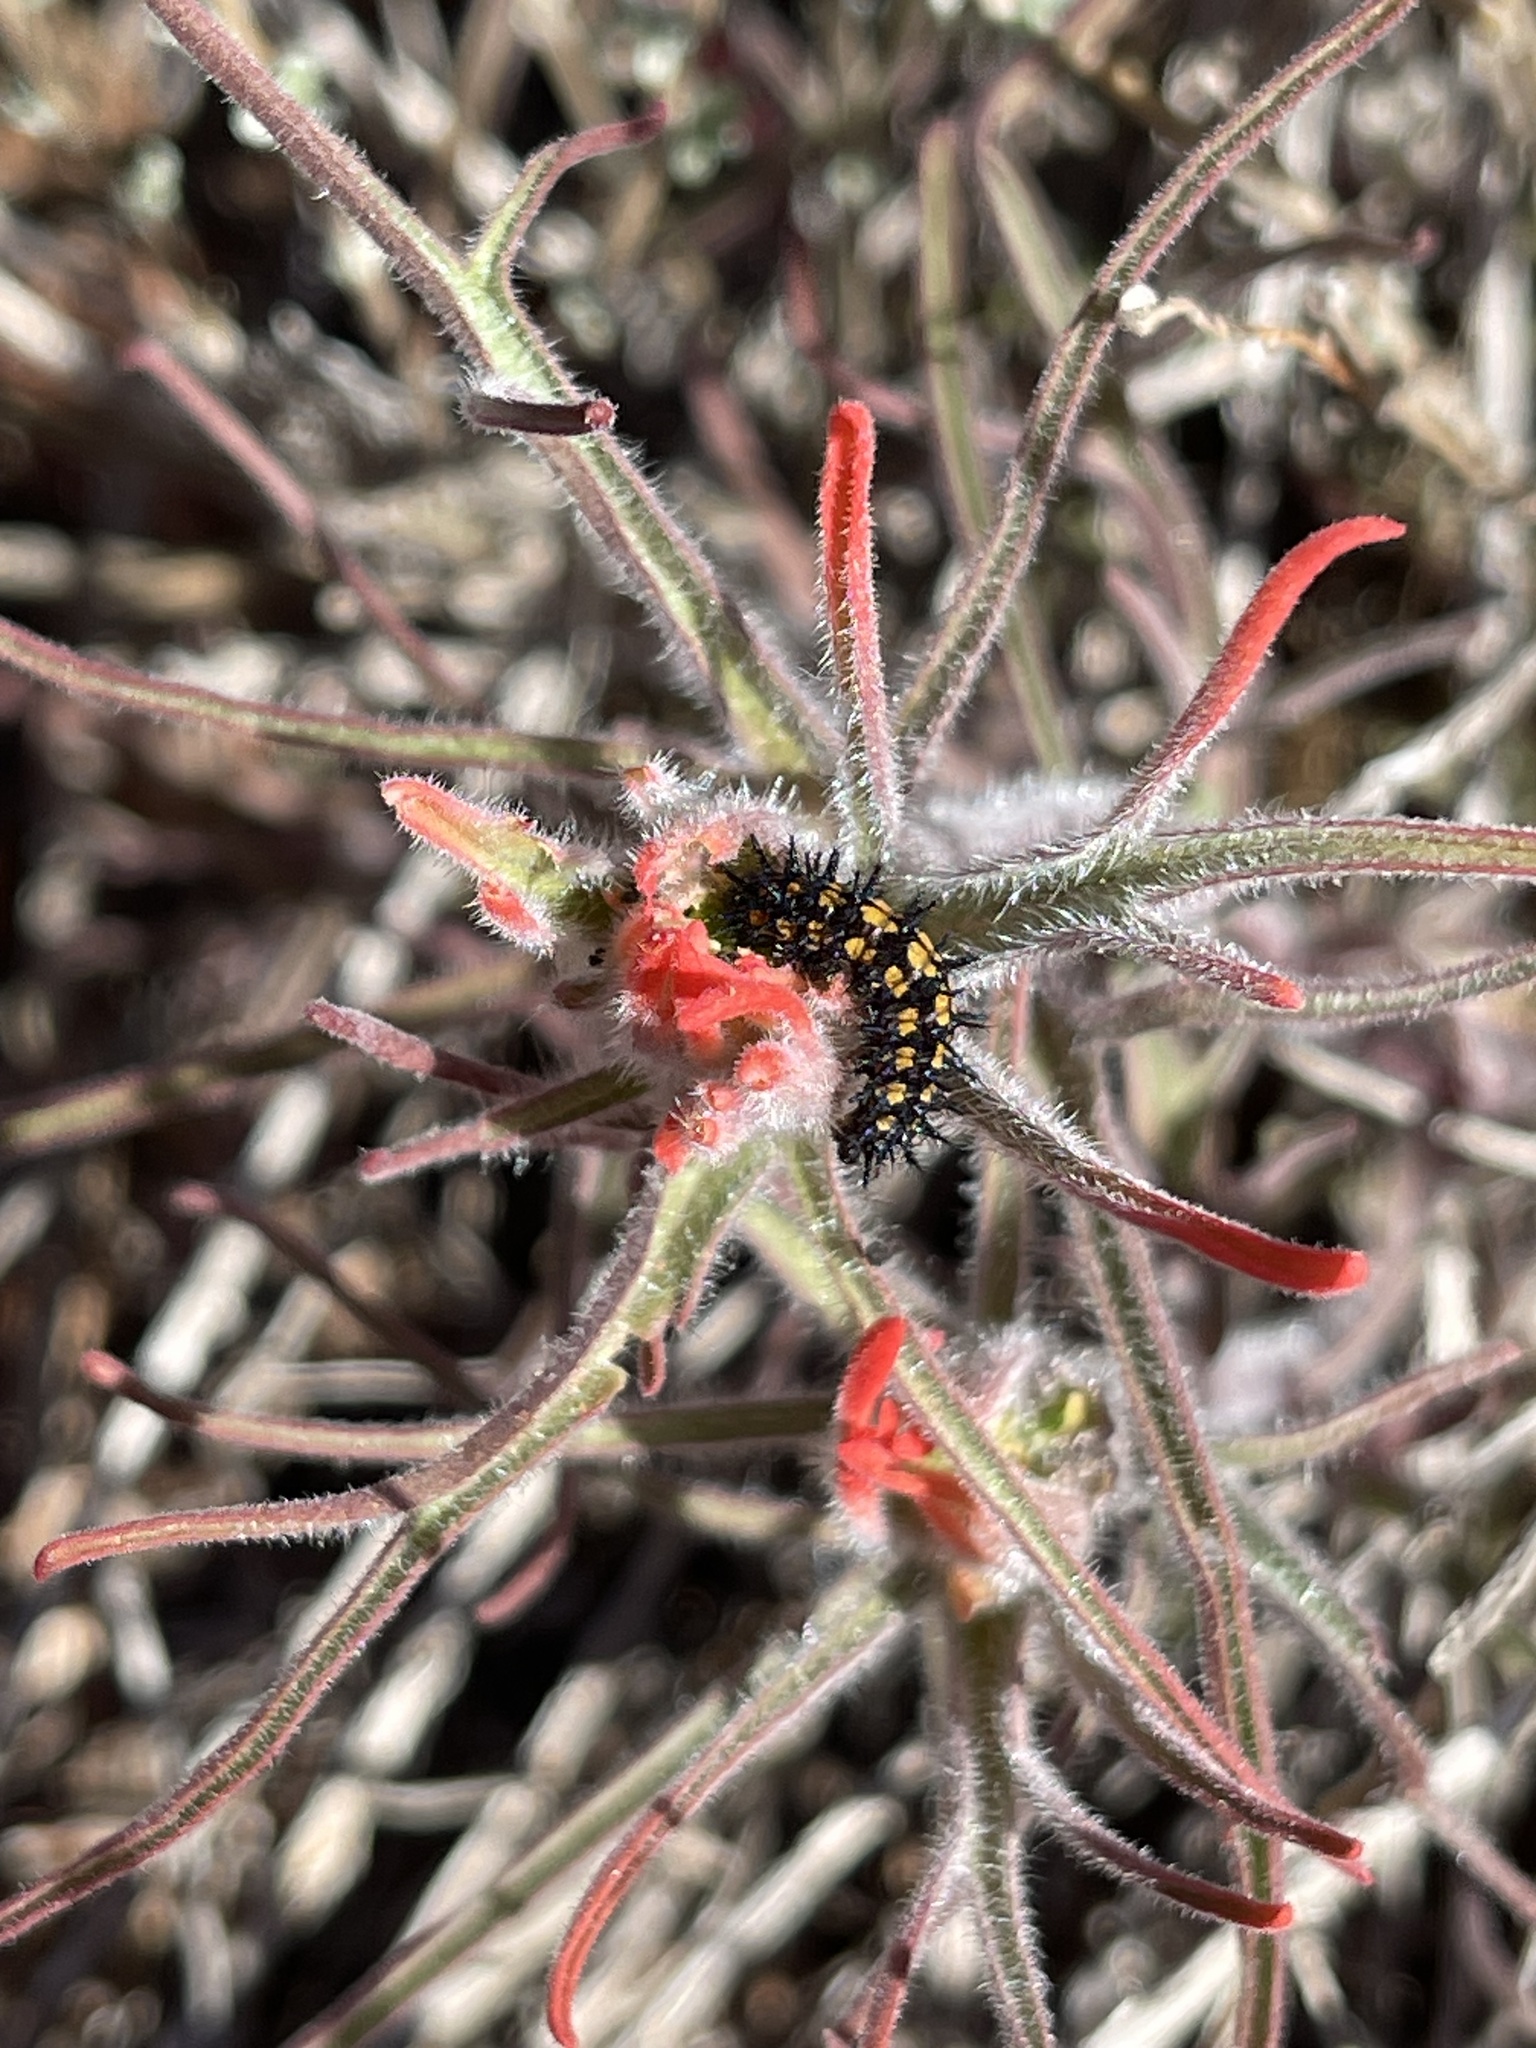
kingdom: Animalia
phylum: Arthropoda
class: Insecta
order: Lepidoptera
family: Nymphalidae
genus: Thessalia
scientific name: Thessalia leanira
